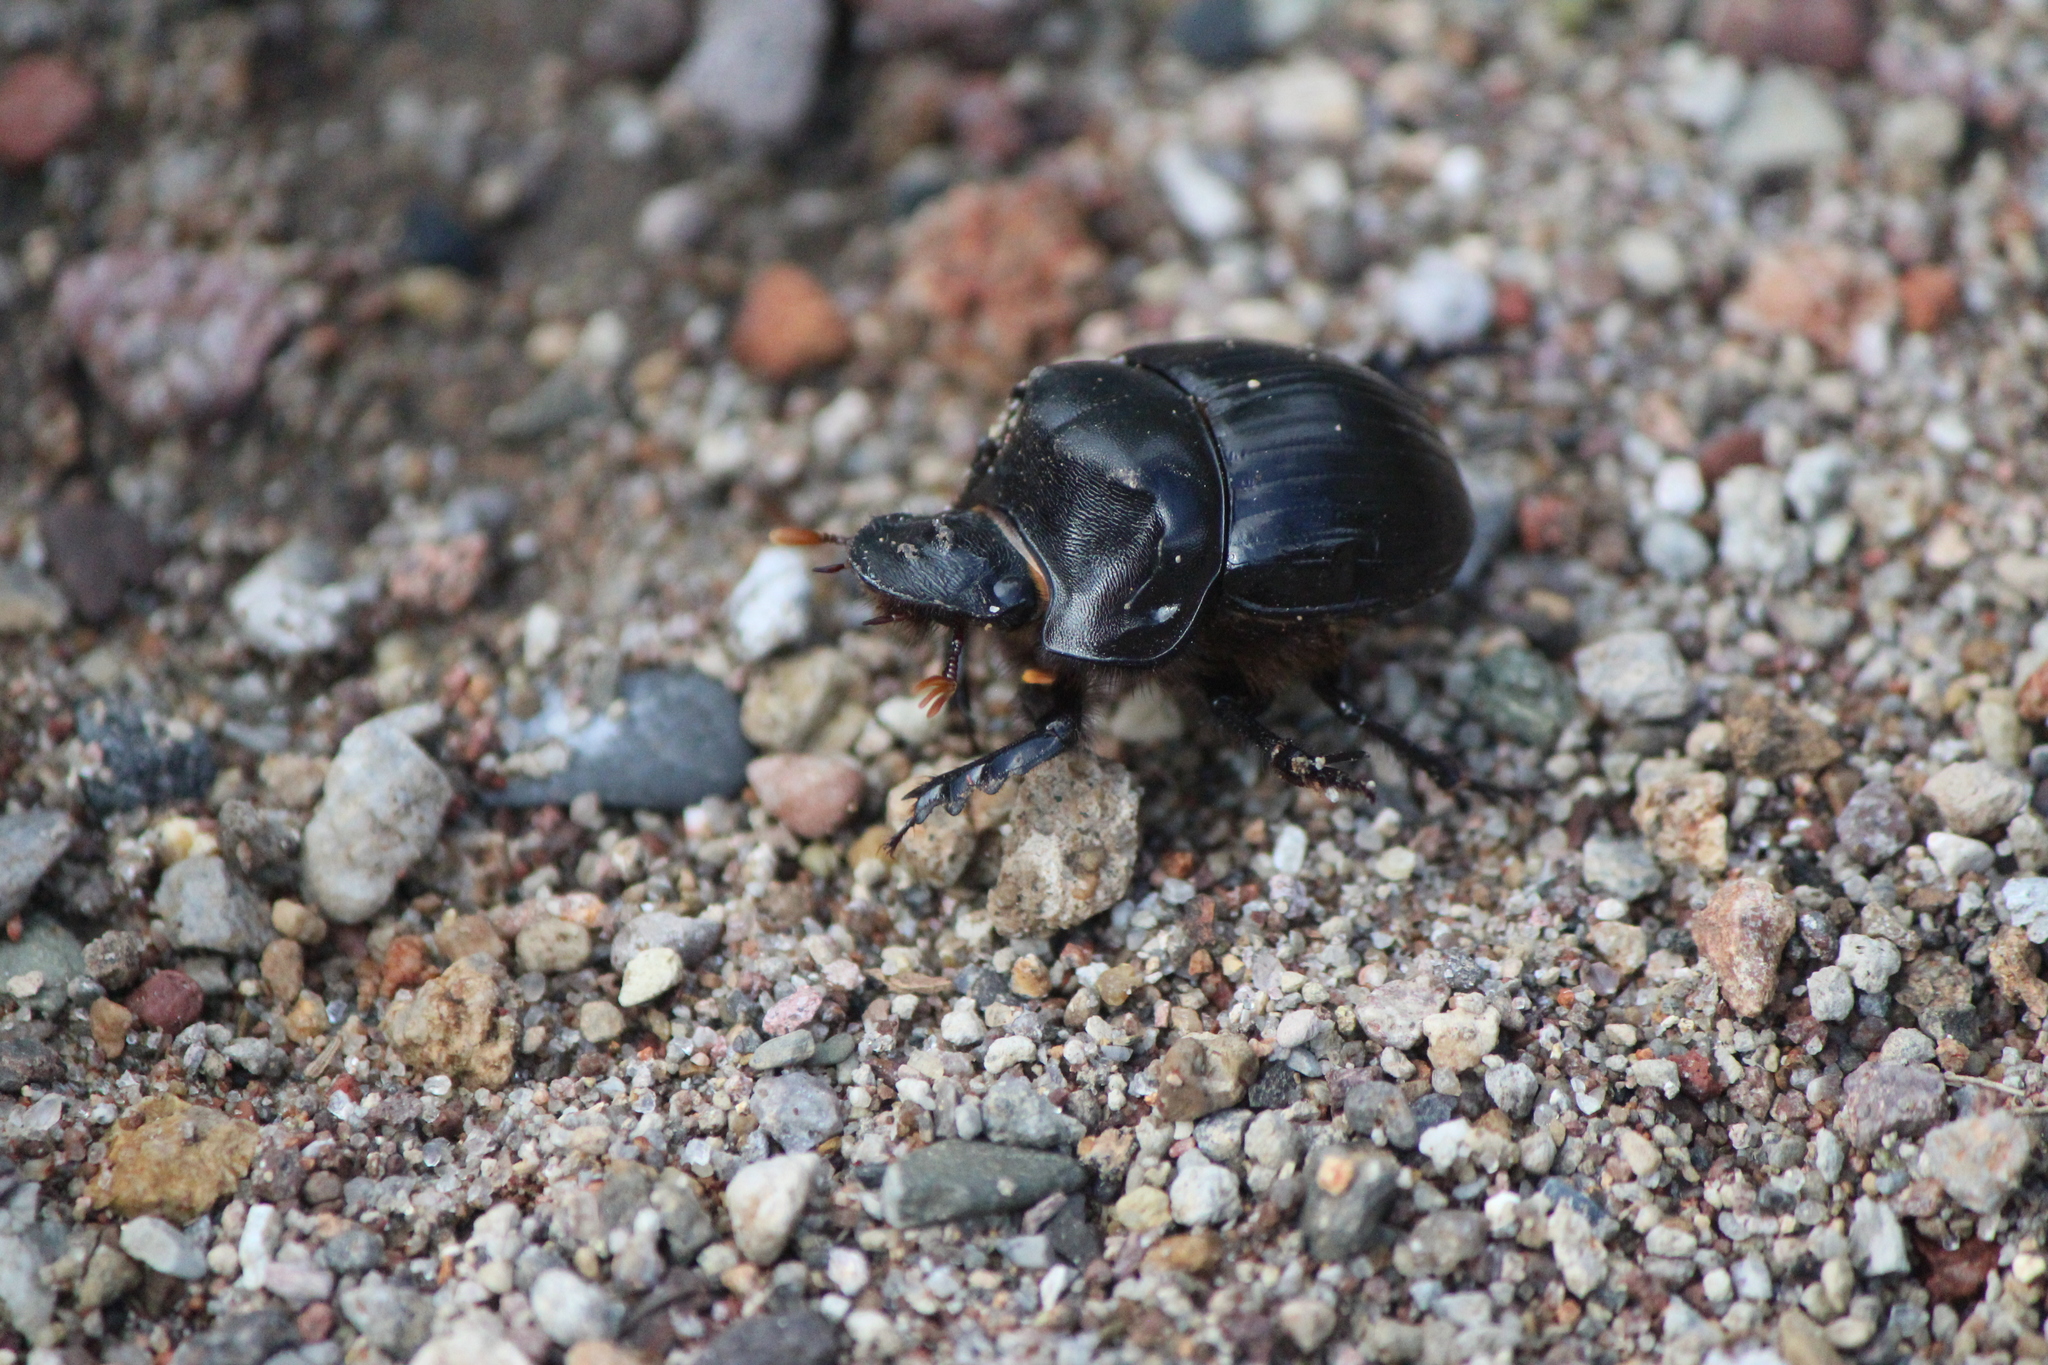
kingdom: Animalia
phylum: Arthropoda
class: Insecta
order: Coleoptera
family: Scarabaeidae
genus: Dichotomius
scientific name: Dichotomius colonicus
